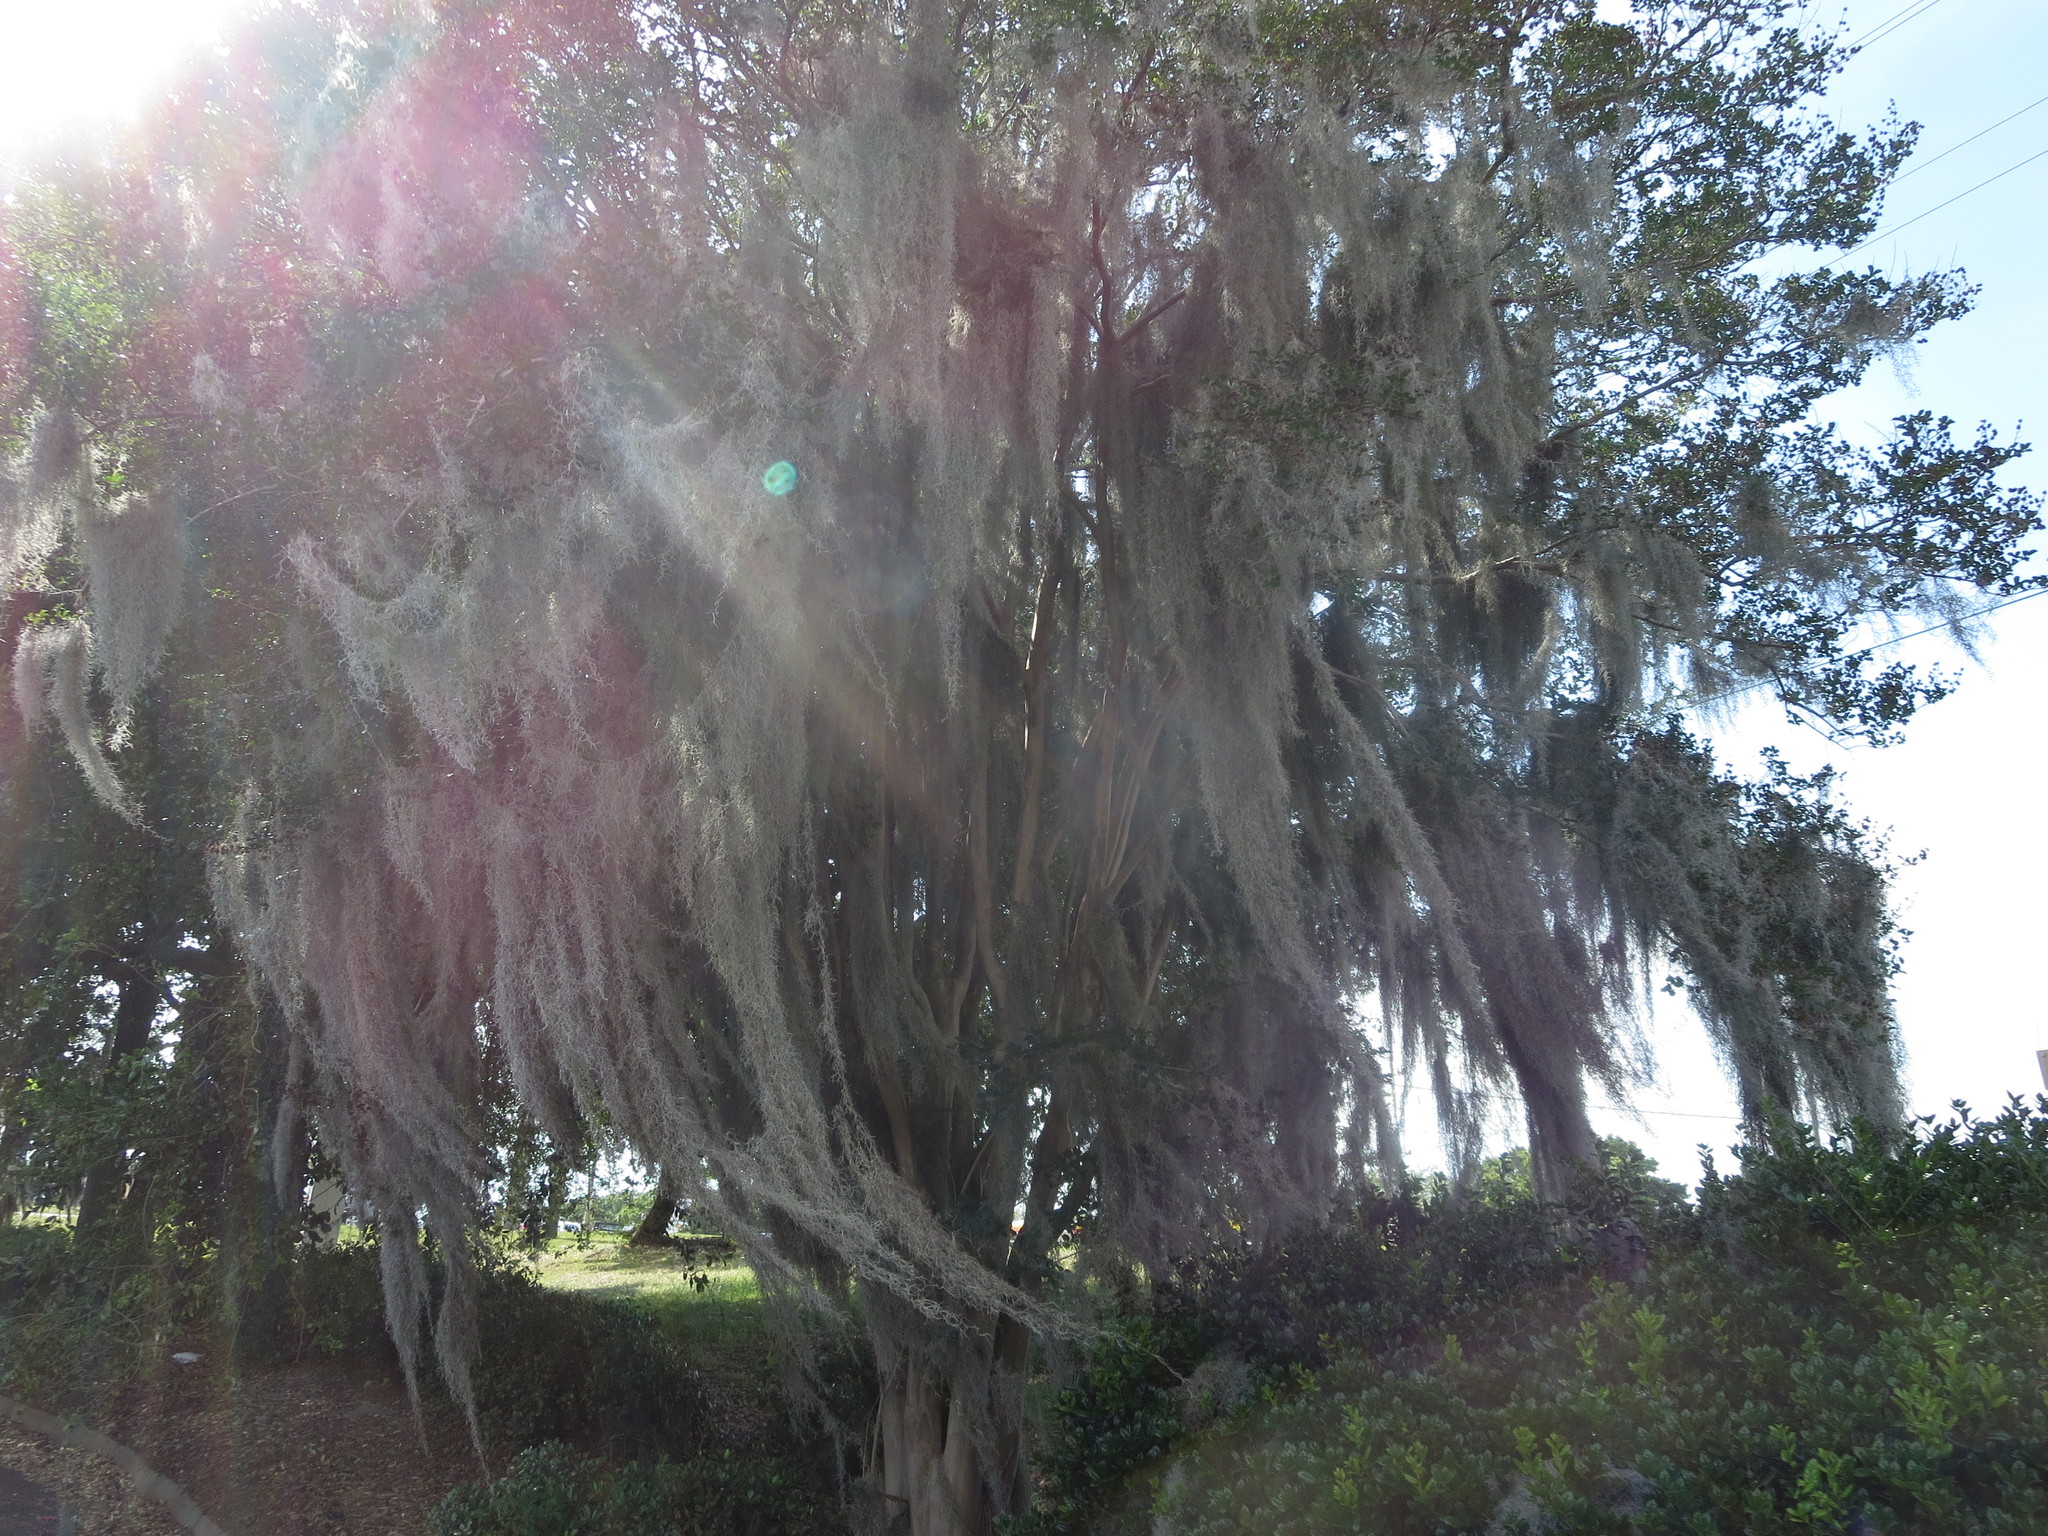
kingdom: Plantae
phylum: Tracheophyta
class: Liliopsida
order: Poales
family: Bromeliaceae
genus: Tillandsia
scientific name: Tillandsia usneoides
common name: Spanish moss
